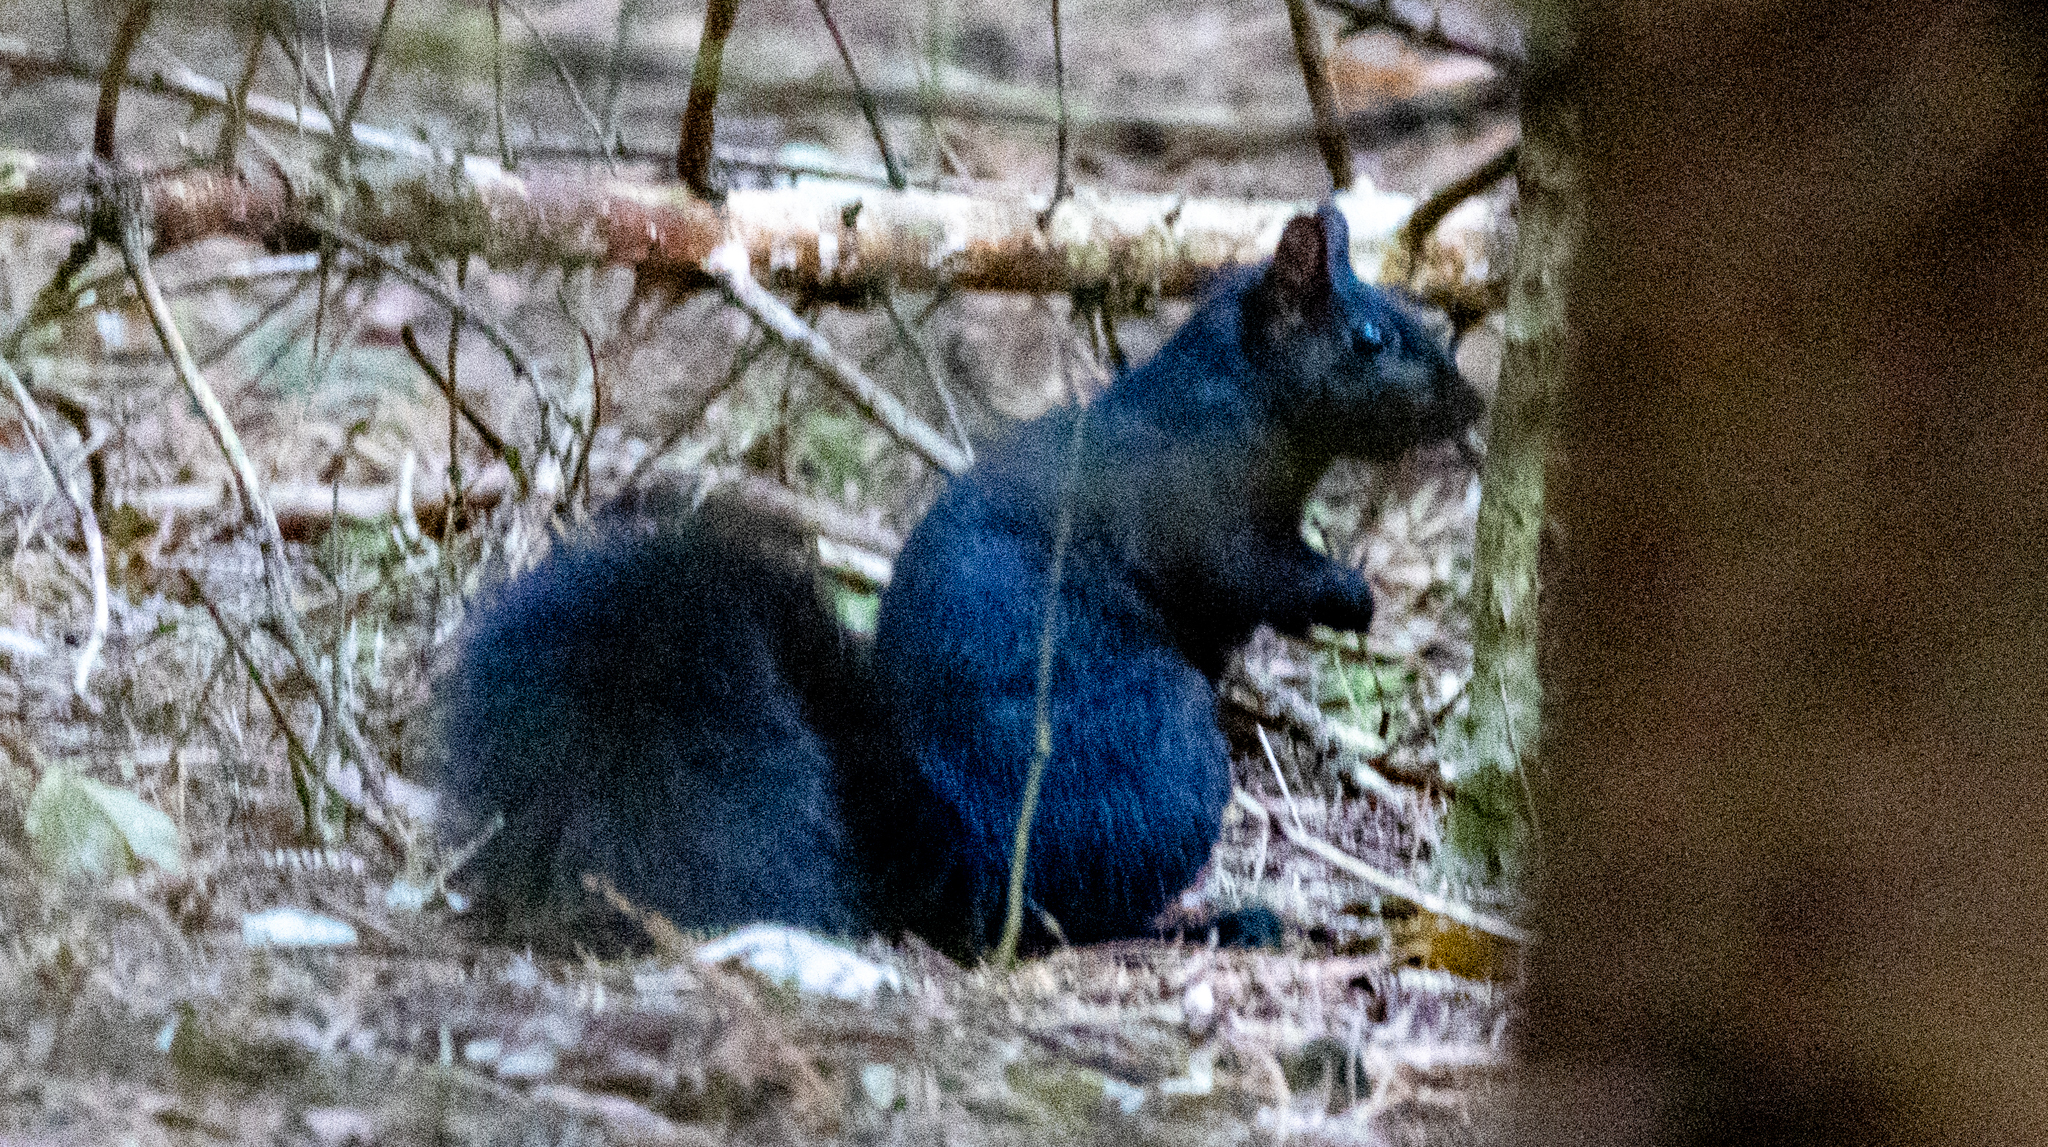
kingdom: Animalia
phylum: Chordata
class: Mammalia
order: Rodentia
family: Sciuridae
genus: Sciurus
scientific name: Sciurus carolinensis
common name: Eastern gray squirrel
